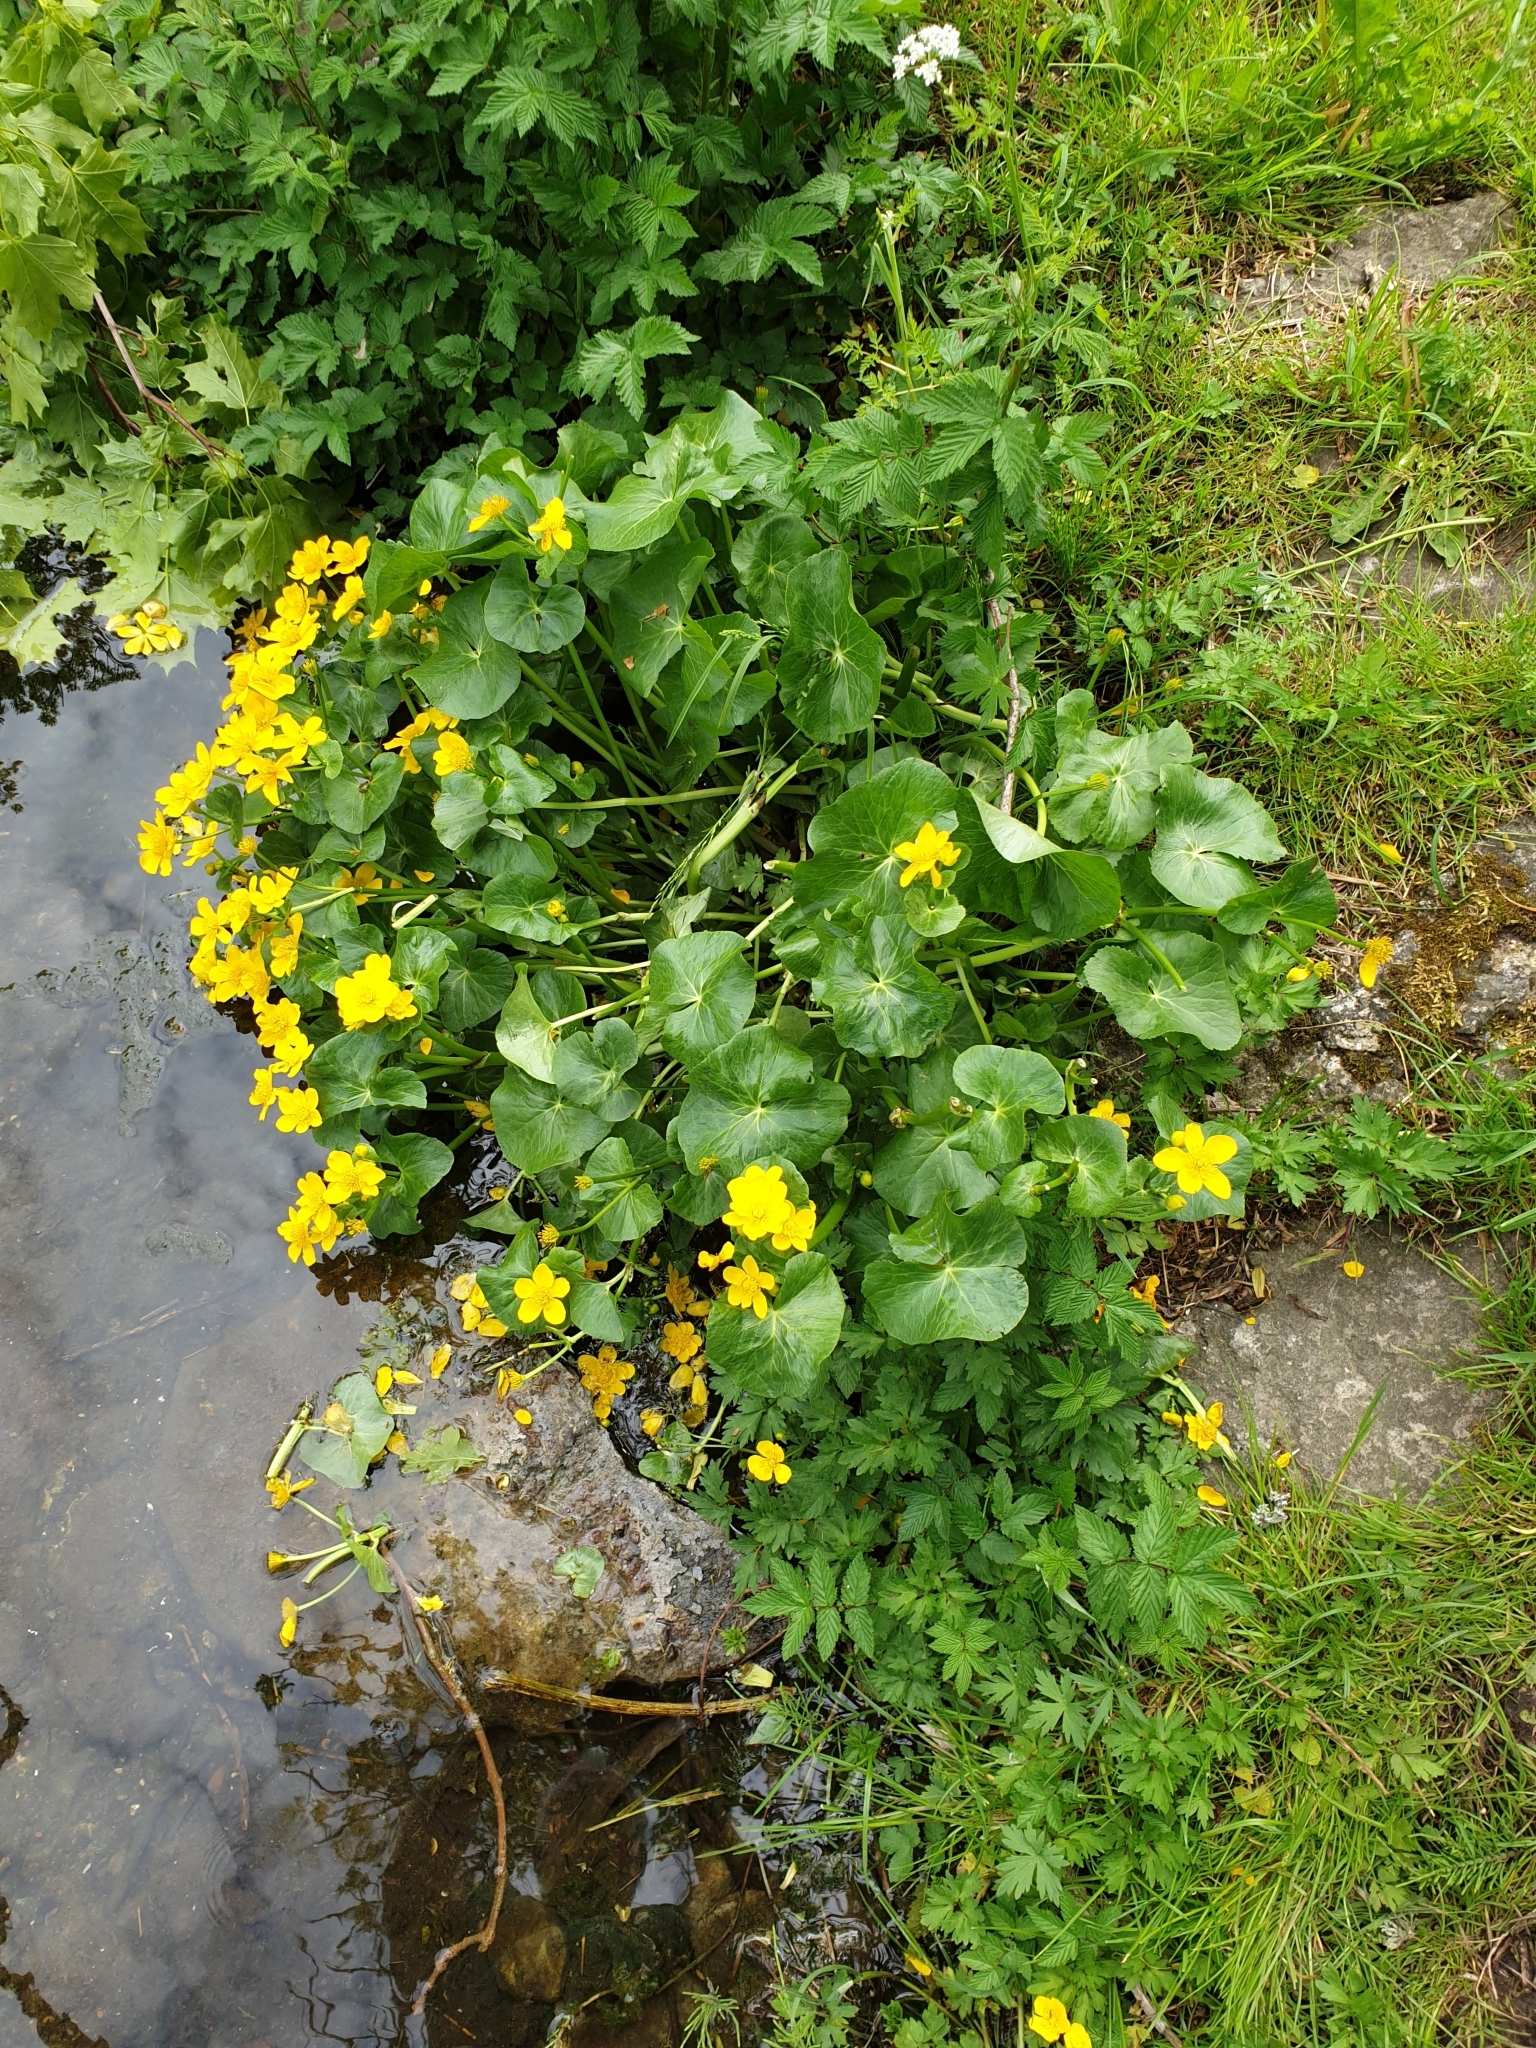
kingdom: Plantae
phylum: Tracheophyta
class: Magnoliopsida
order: Ranunculales
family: Ranunculaceae
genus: Caltha
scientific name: Caltha palustris
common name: Marsh marigold
